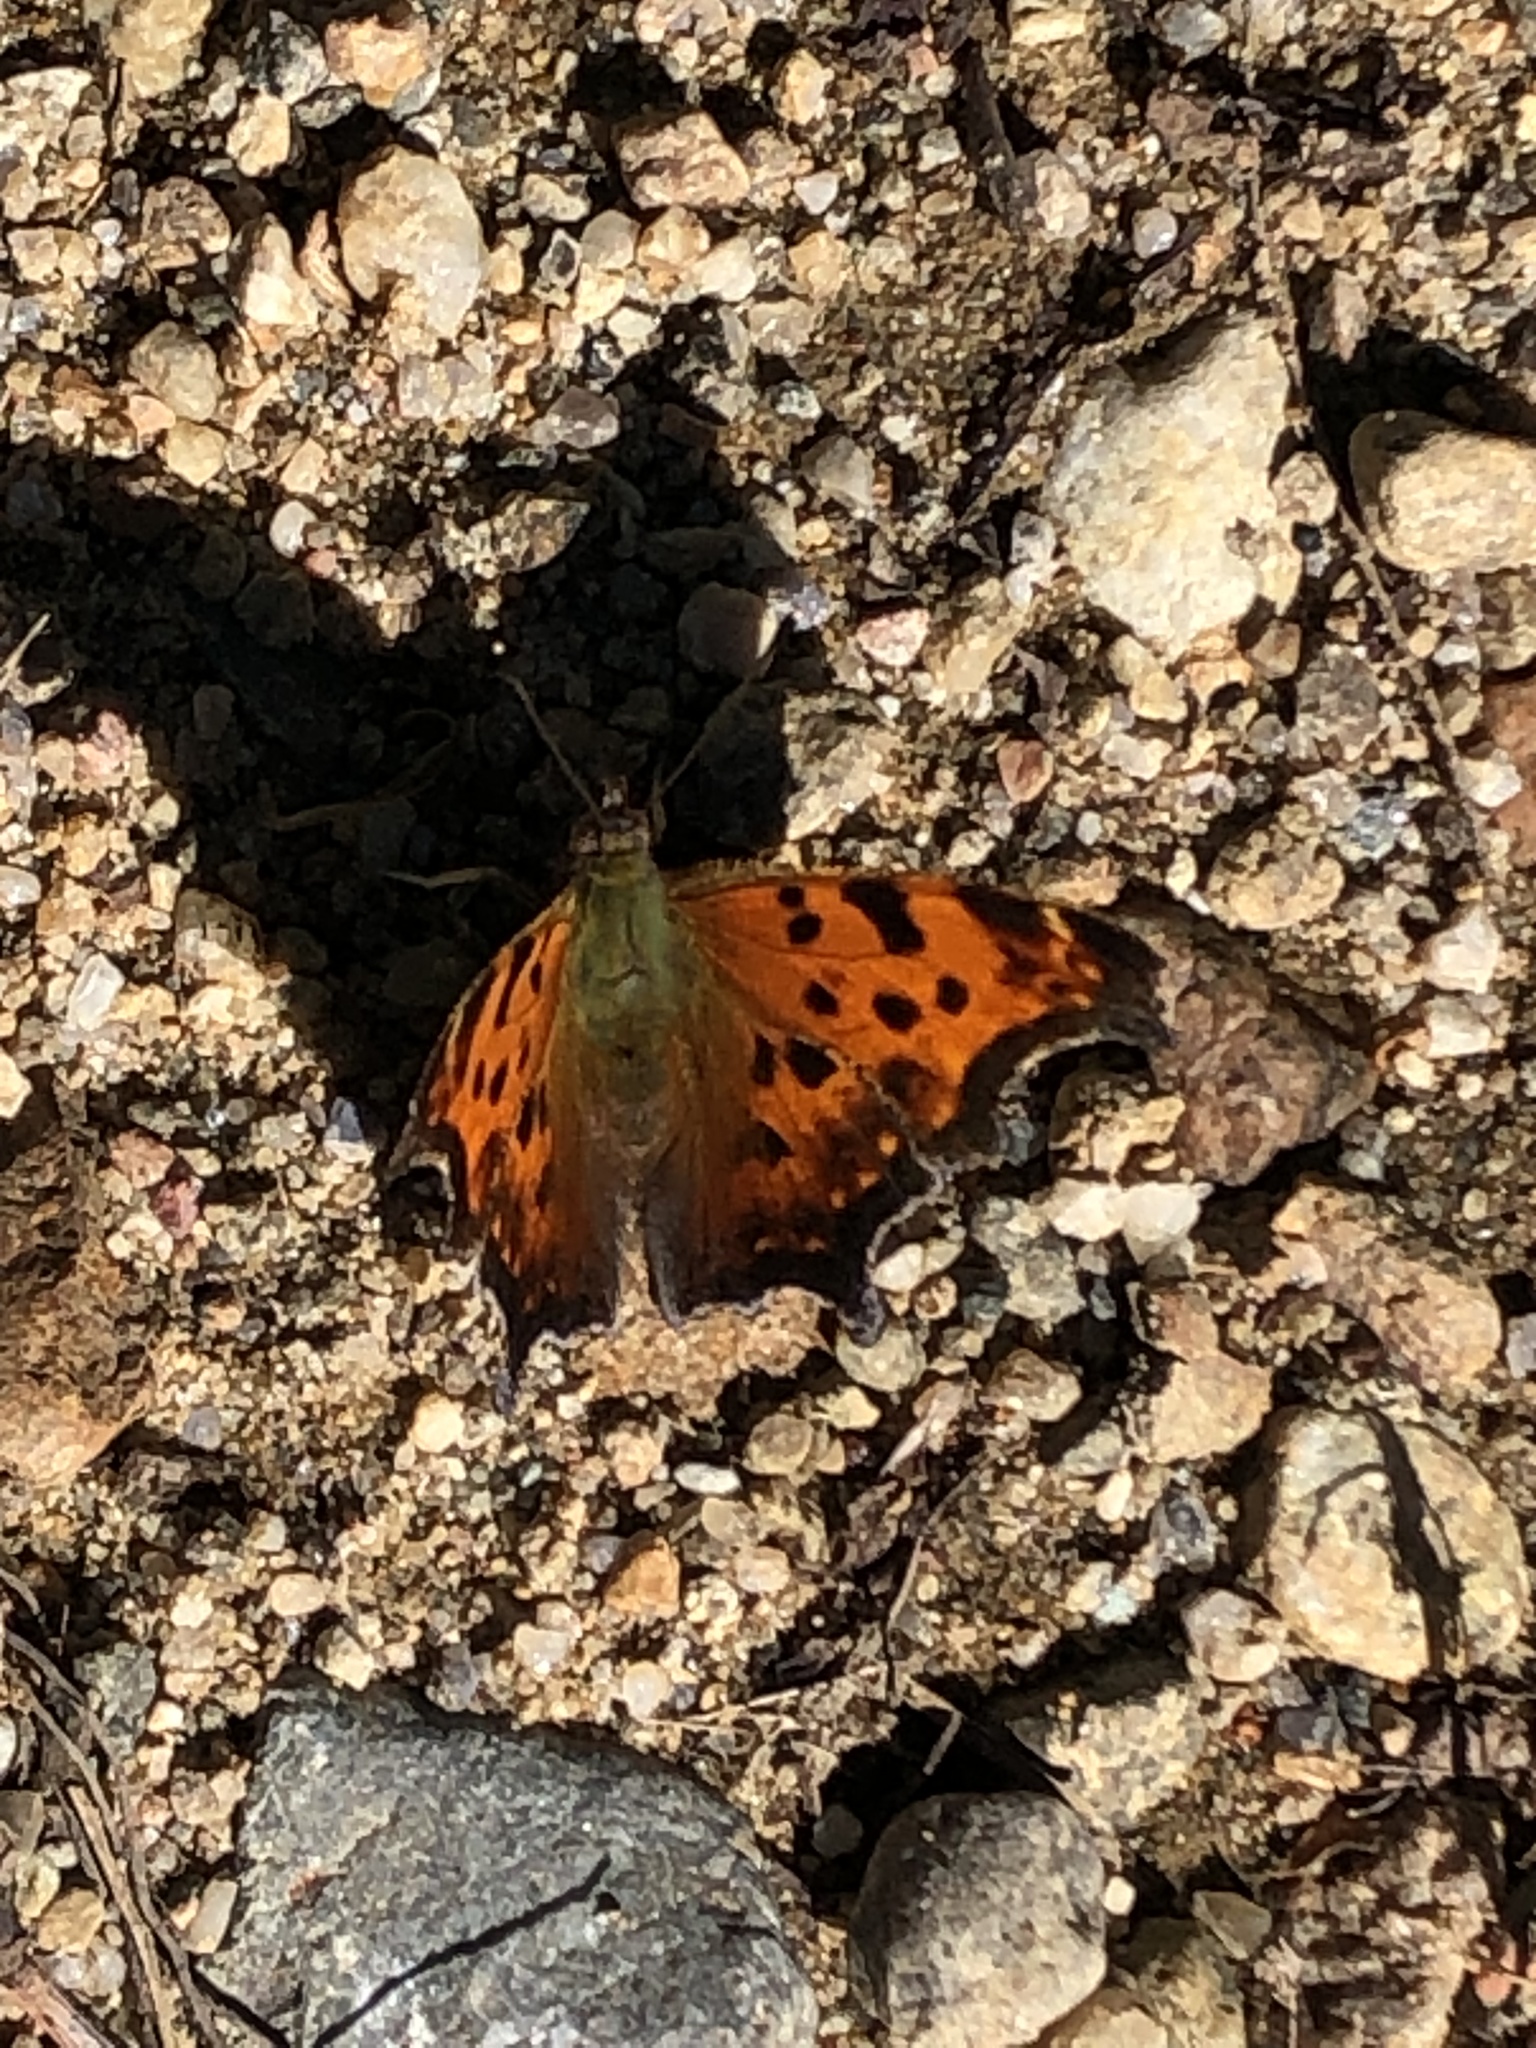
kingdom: Animalia
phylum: Arthropoda
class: Insecta
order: Lepidoptera
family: Nymphalidae
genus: Polygonia
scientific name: Polygonia comma
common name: Eastern comma
